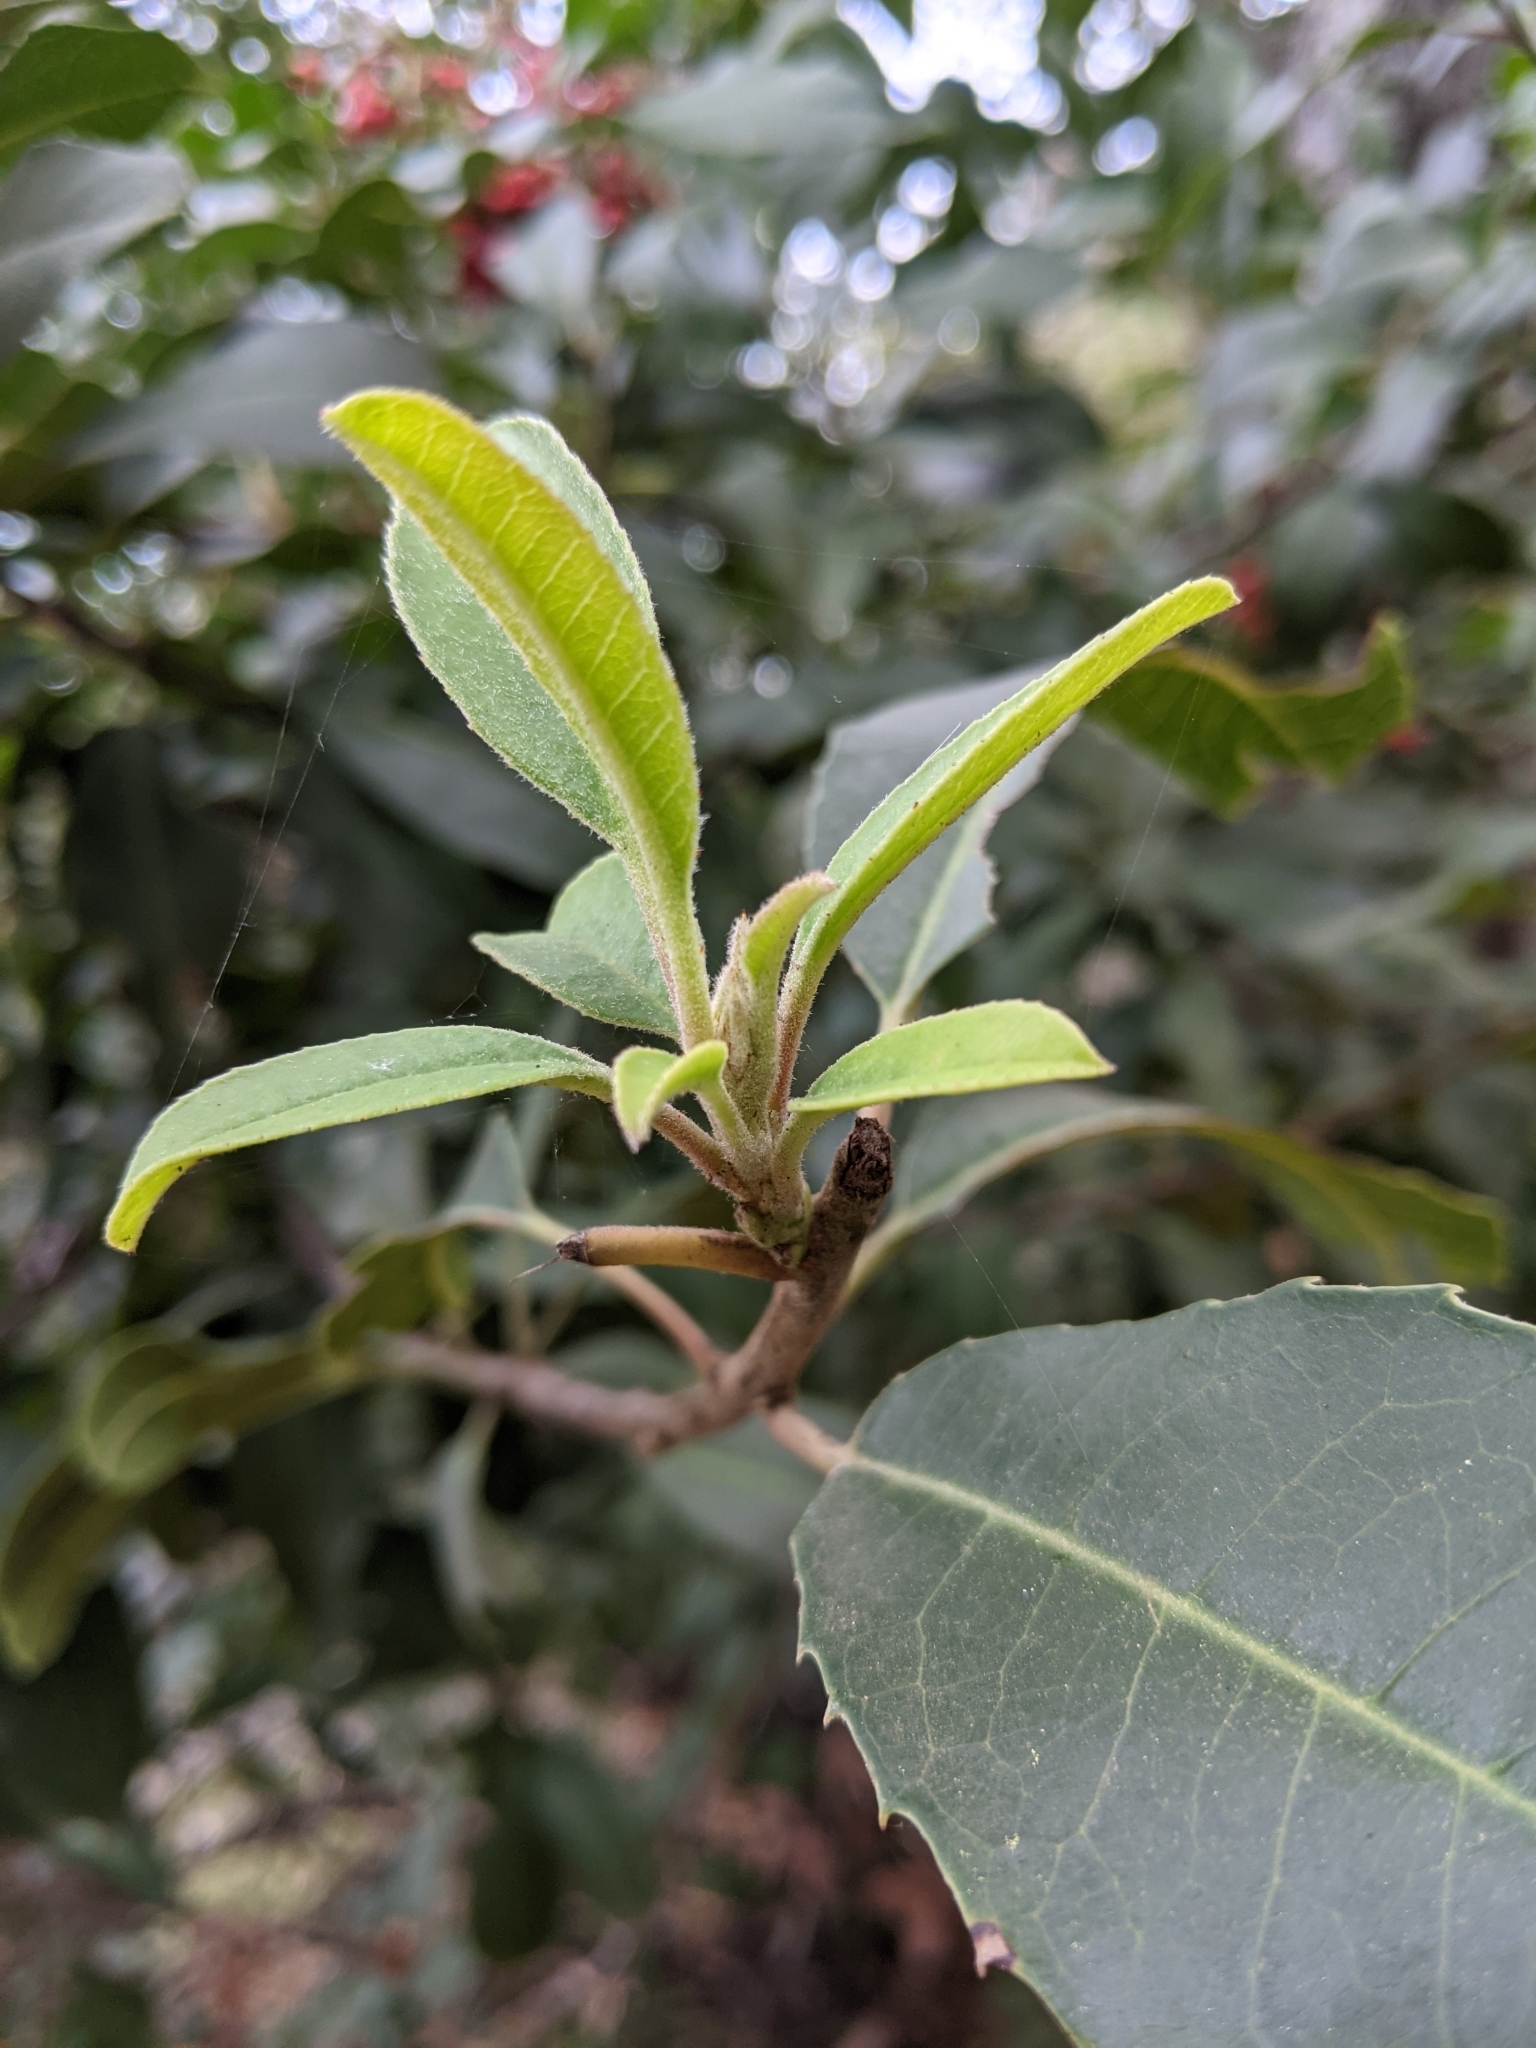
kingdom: Plantae
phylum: Tracheophyta
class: Magnoliopsida
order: Rosales
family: Rosaceae
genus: Heteromeles
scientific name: Heteromeles arbutifolia
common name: California-holly
